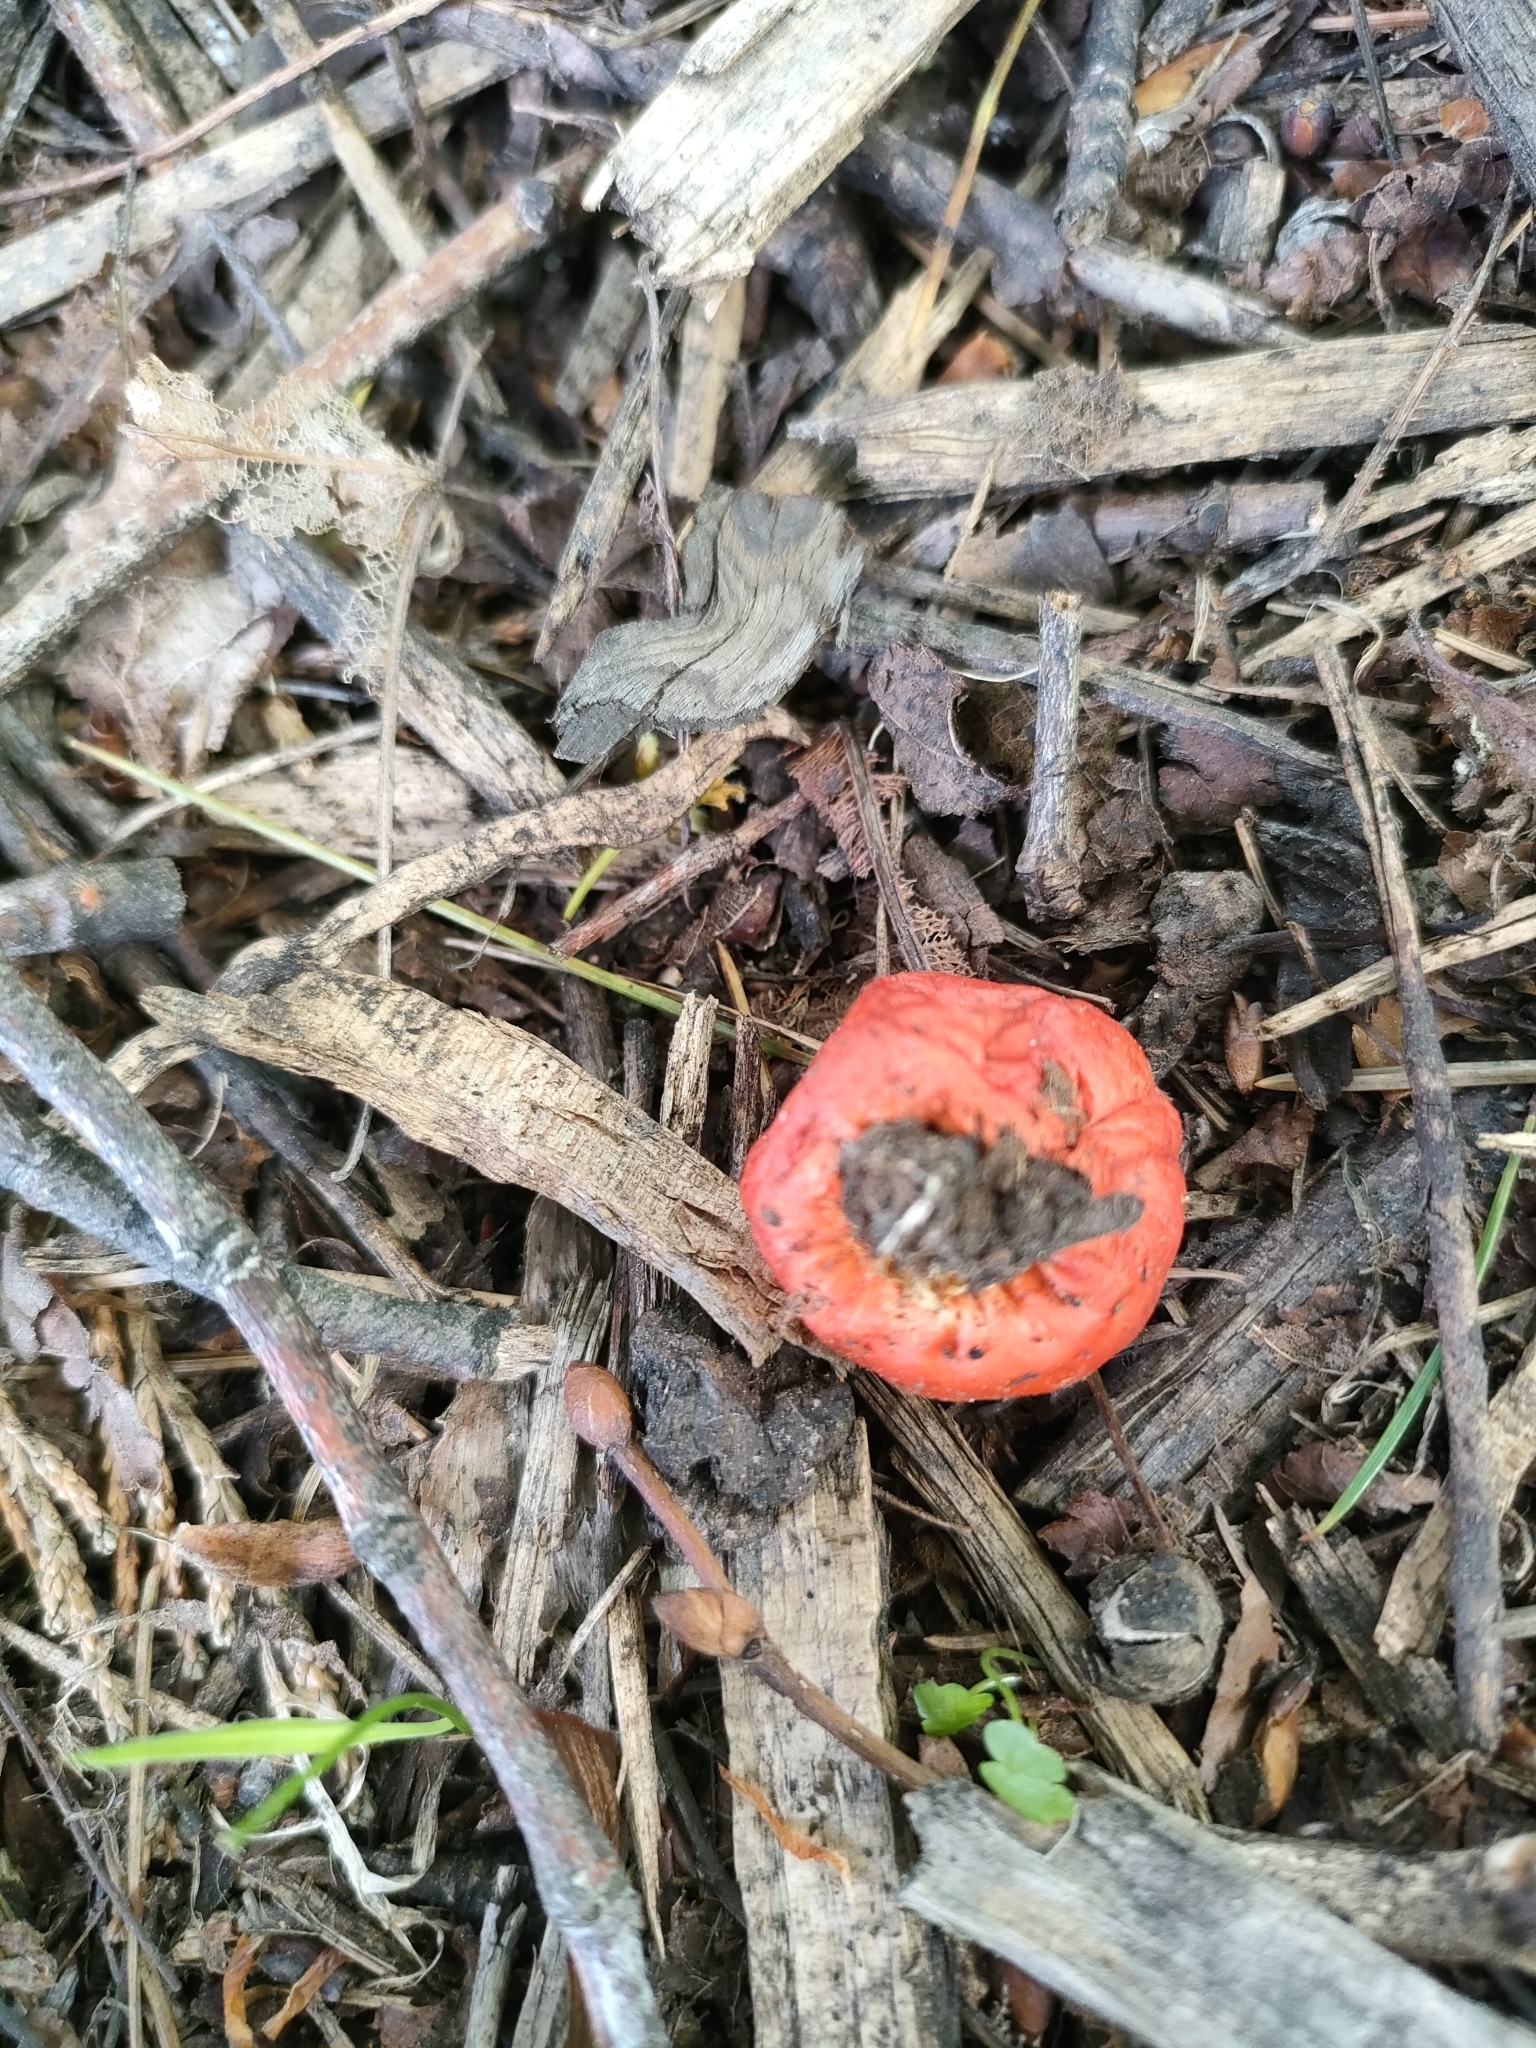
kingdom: Fungi
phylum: Basidiomycota
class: Agaricomycetes
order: Agaricales
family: Strophariaceae
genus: Leratiomyces
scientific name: Leratiomyces erythrocephalus
